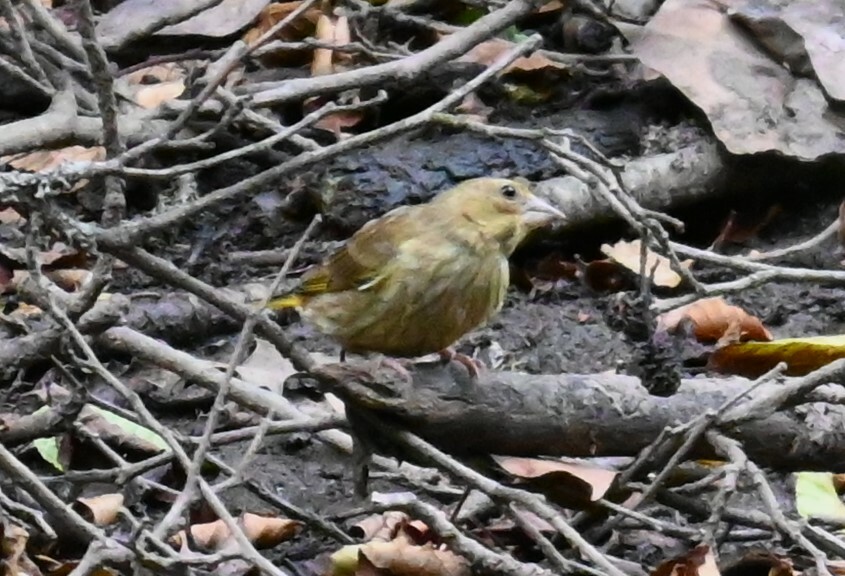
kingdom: Plantae
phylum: Tracheophyta
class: Liliopsida
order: Poales
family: Poaceae
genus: Chloris
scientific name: Chloris chloris
